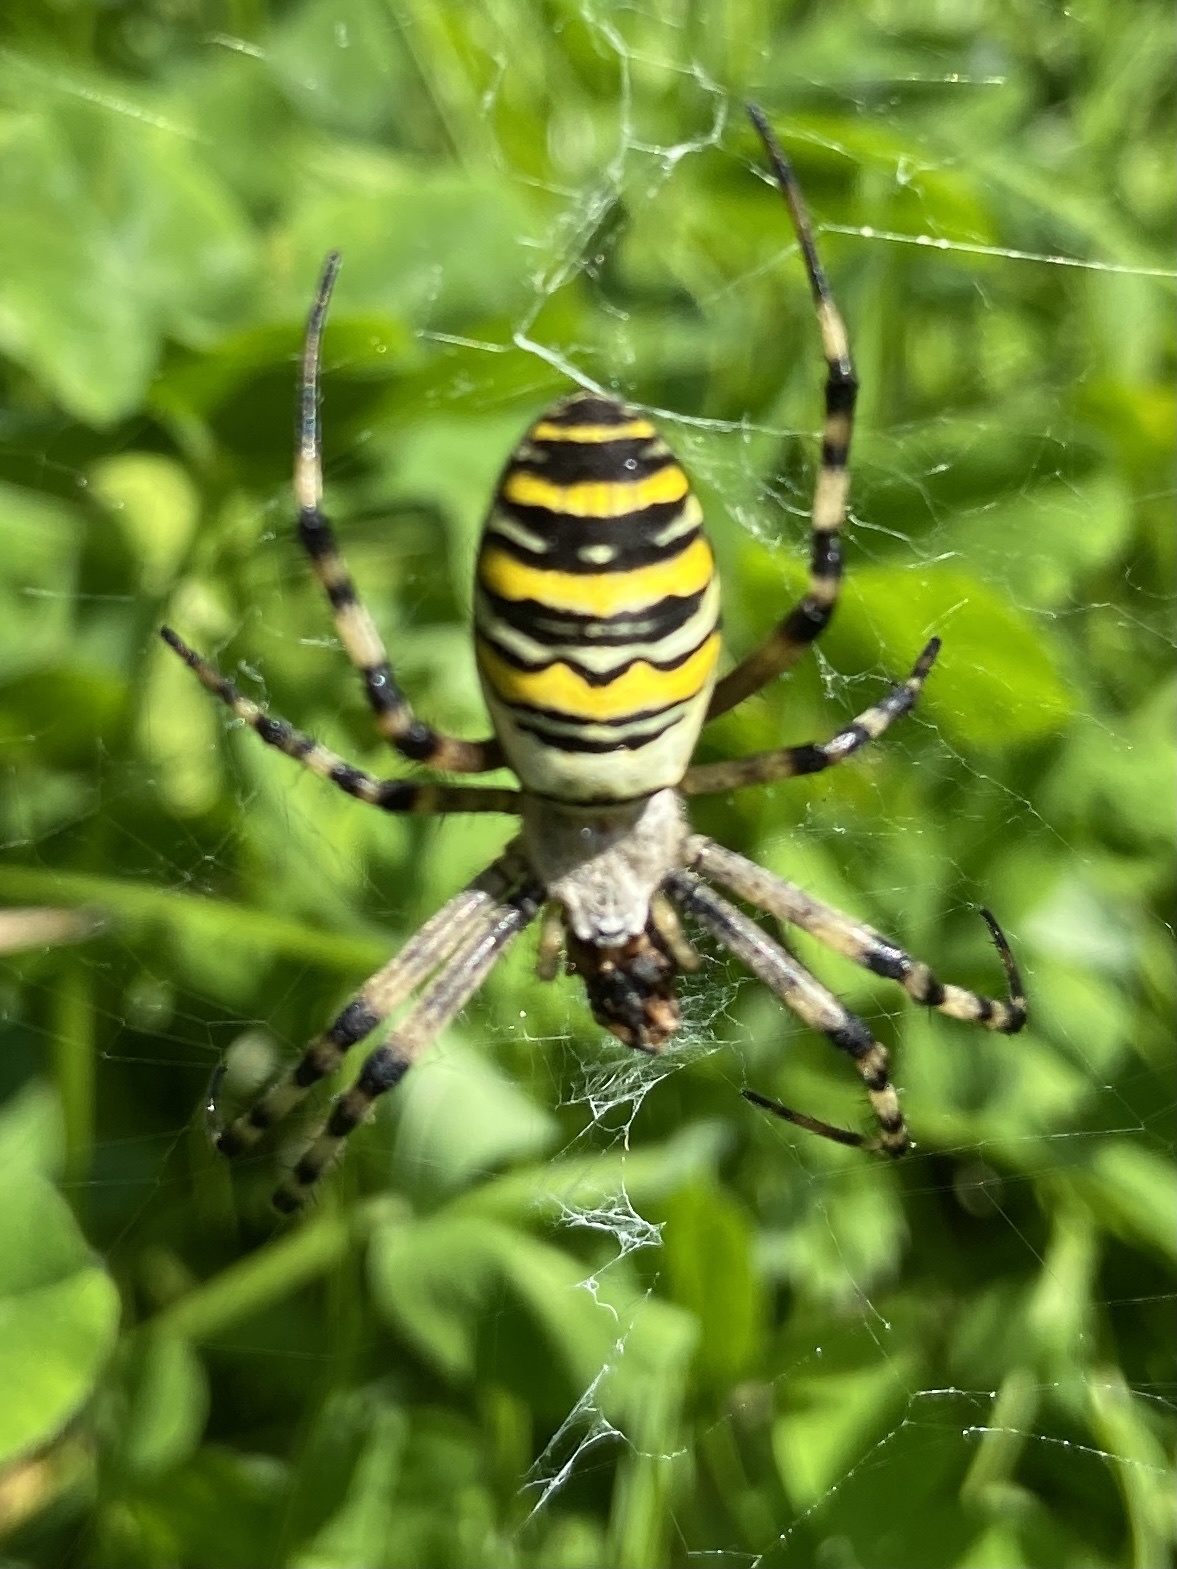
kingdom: Animalia
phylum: Arthropoda
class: Arachnida
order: Araneae
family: Araneidae
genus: Argiope
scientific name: Argiope bruennichi
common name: Wasp spider
